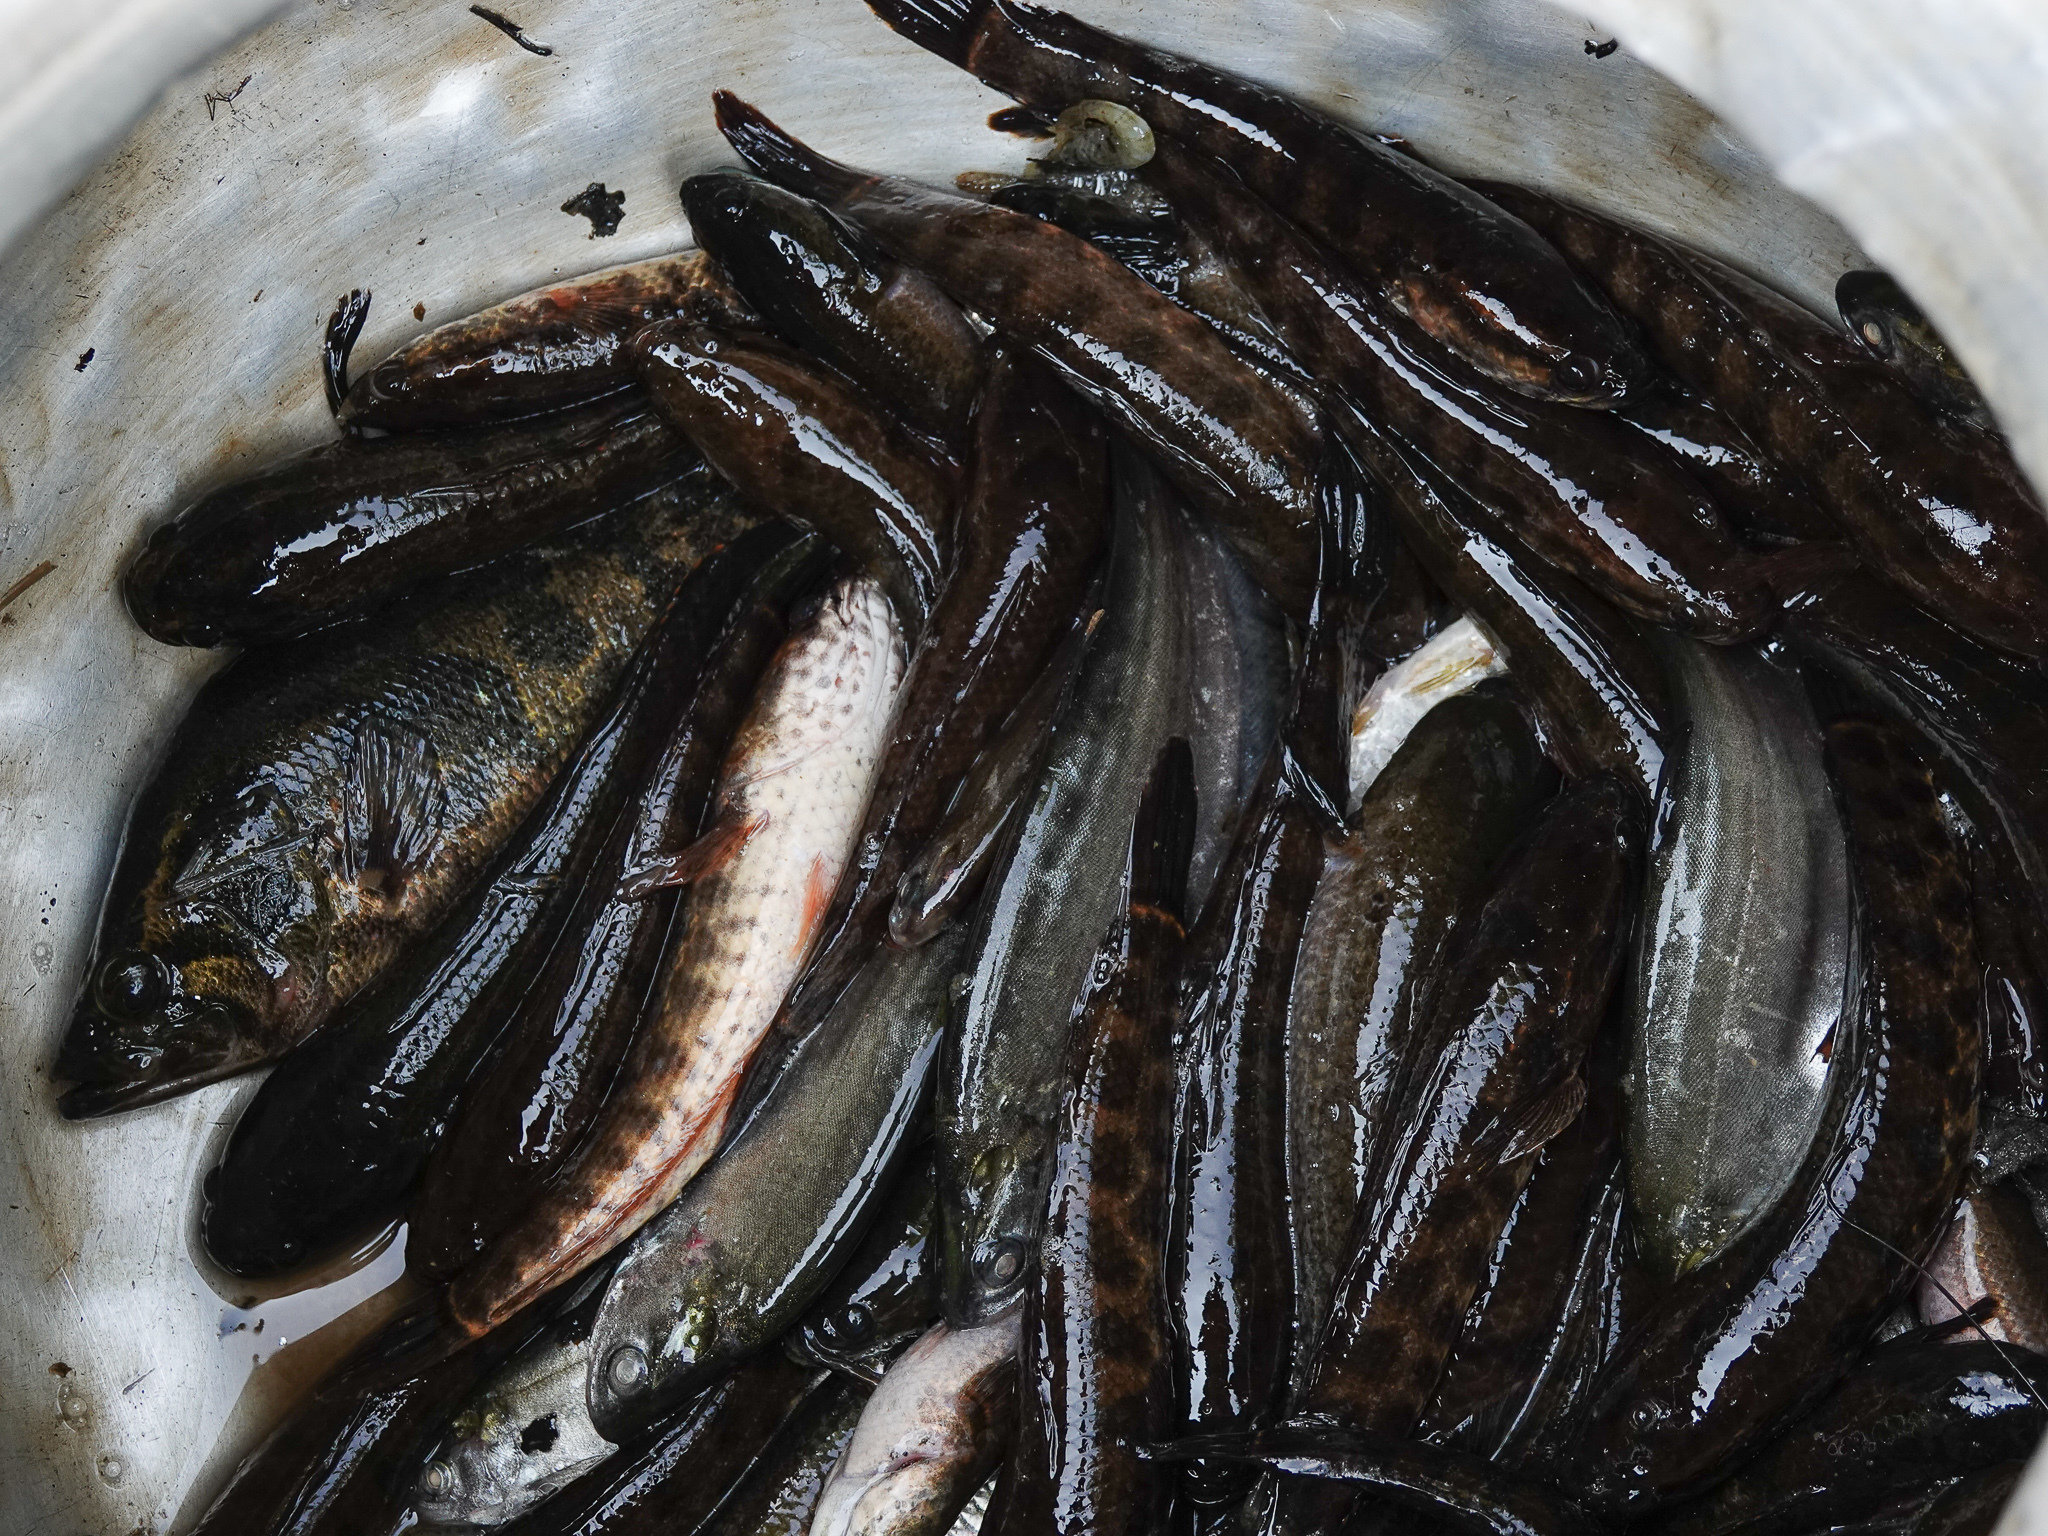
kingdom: Animalia
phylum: Chordata
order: Perciformes
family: Channidae
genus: Channa
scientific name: Channa punctata
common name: Spotted snakehead
